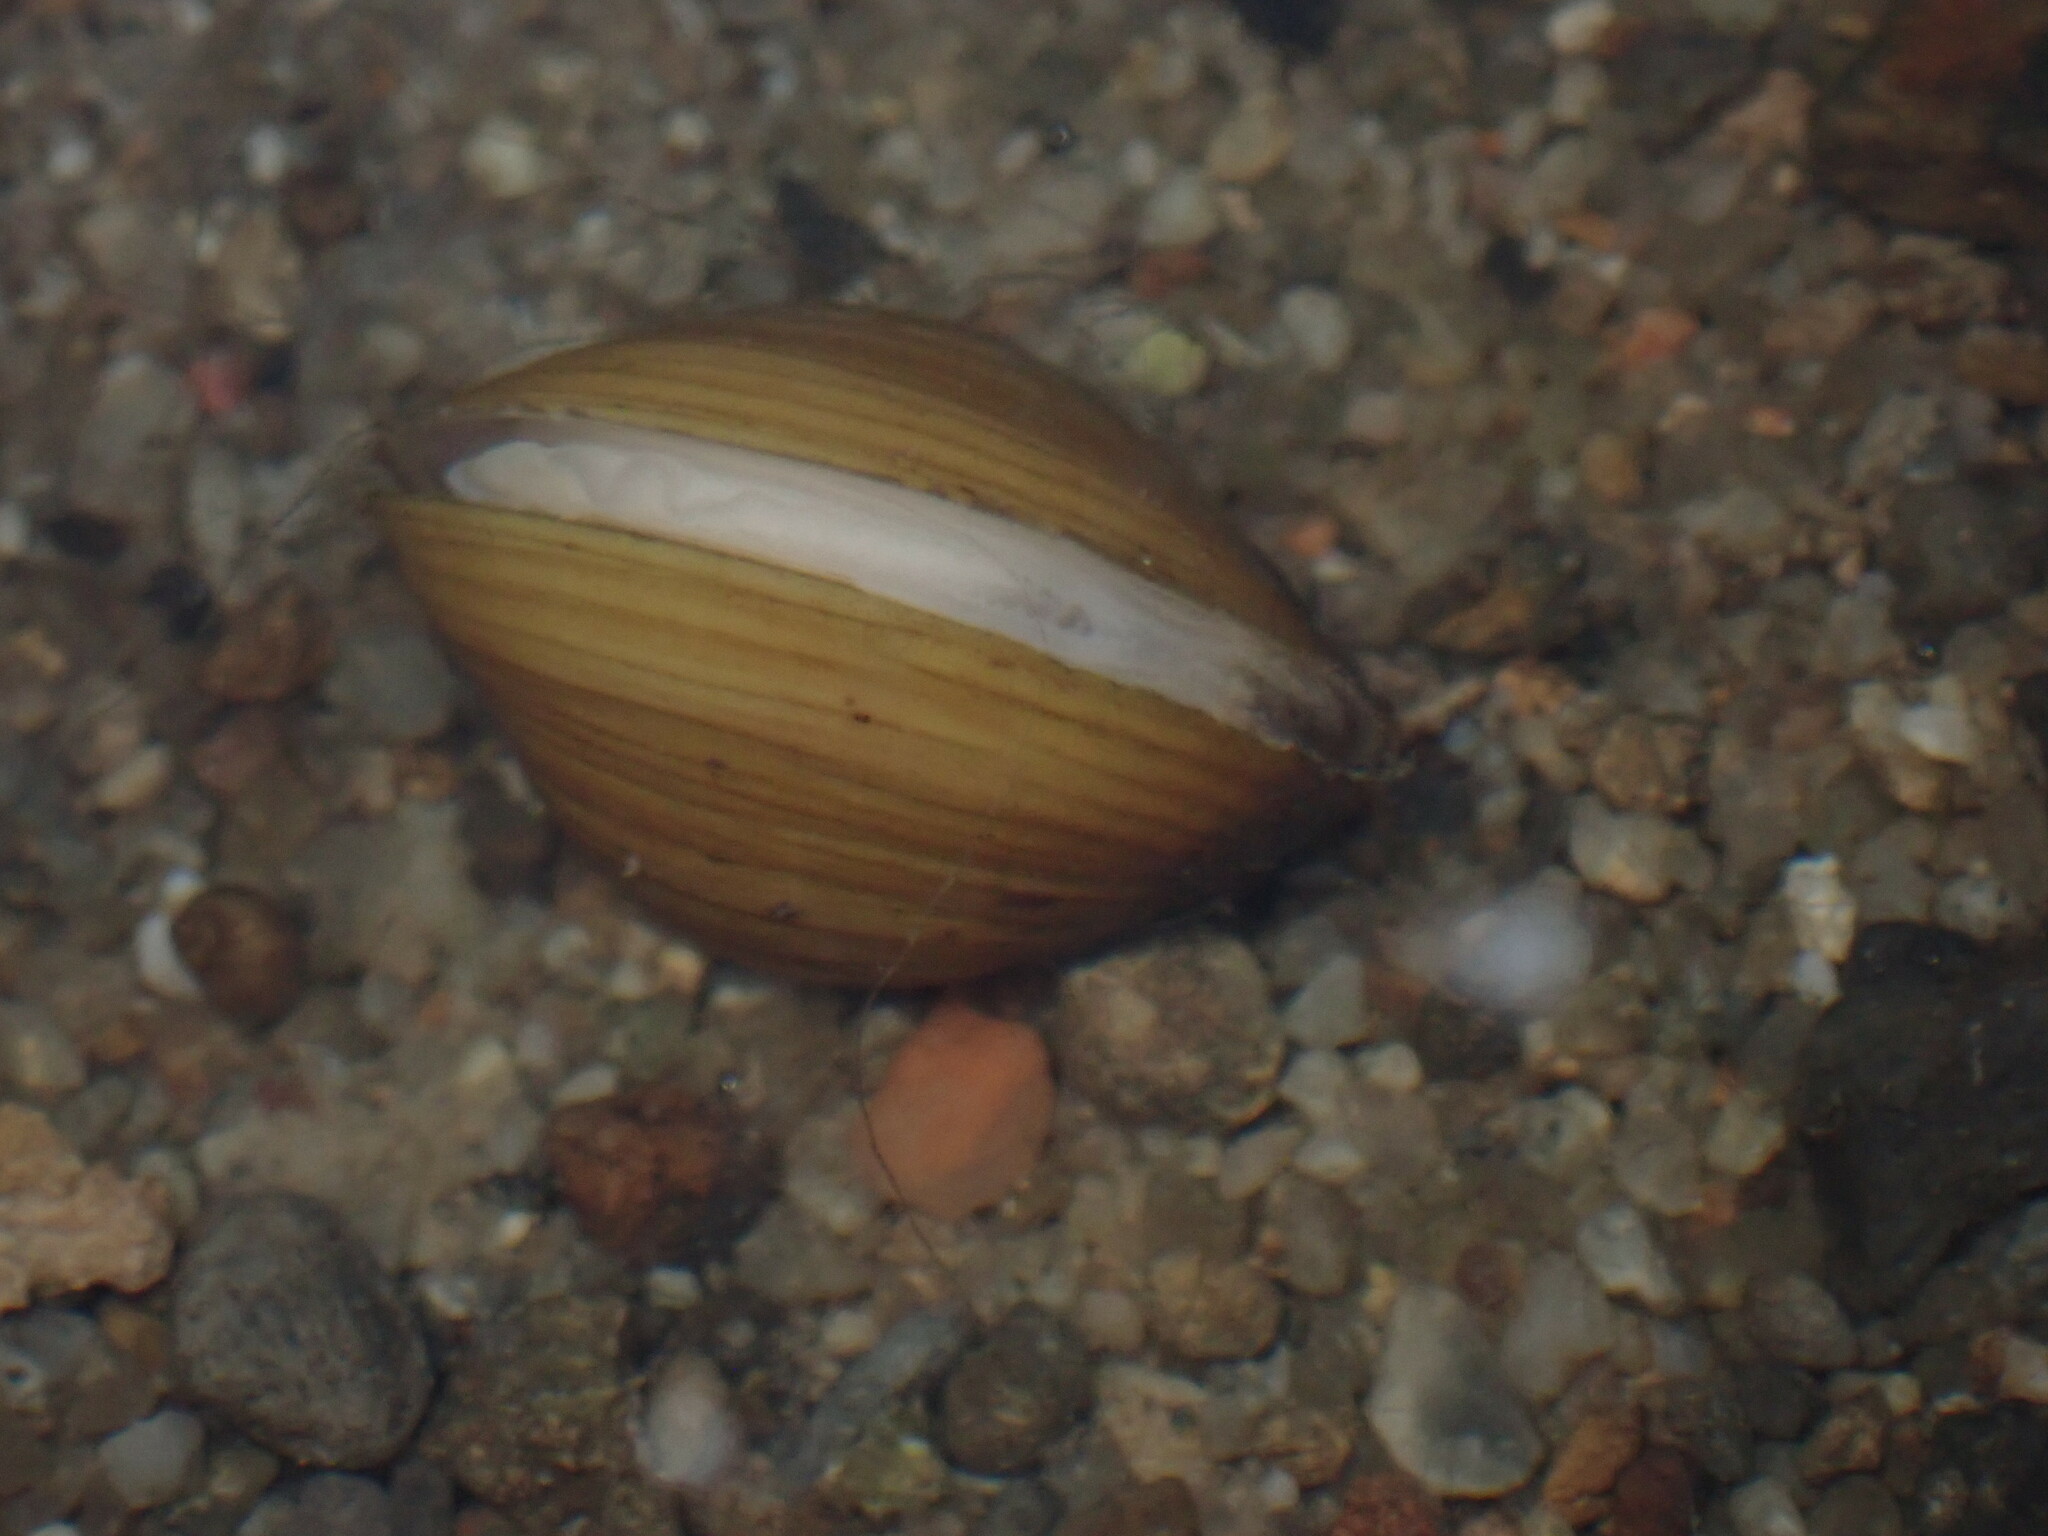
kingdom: Animalia
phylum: Mollusca
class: Bivalvia
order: Venerida
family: Cyrenidae
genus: Corbicula
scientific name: Corbicula fluminea
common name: Asian clam
